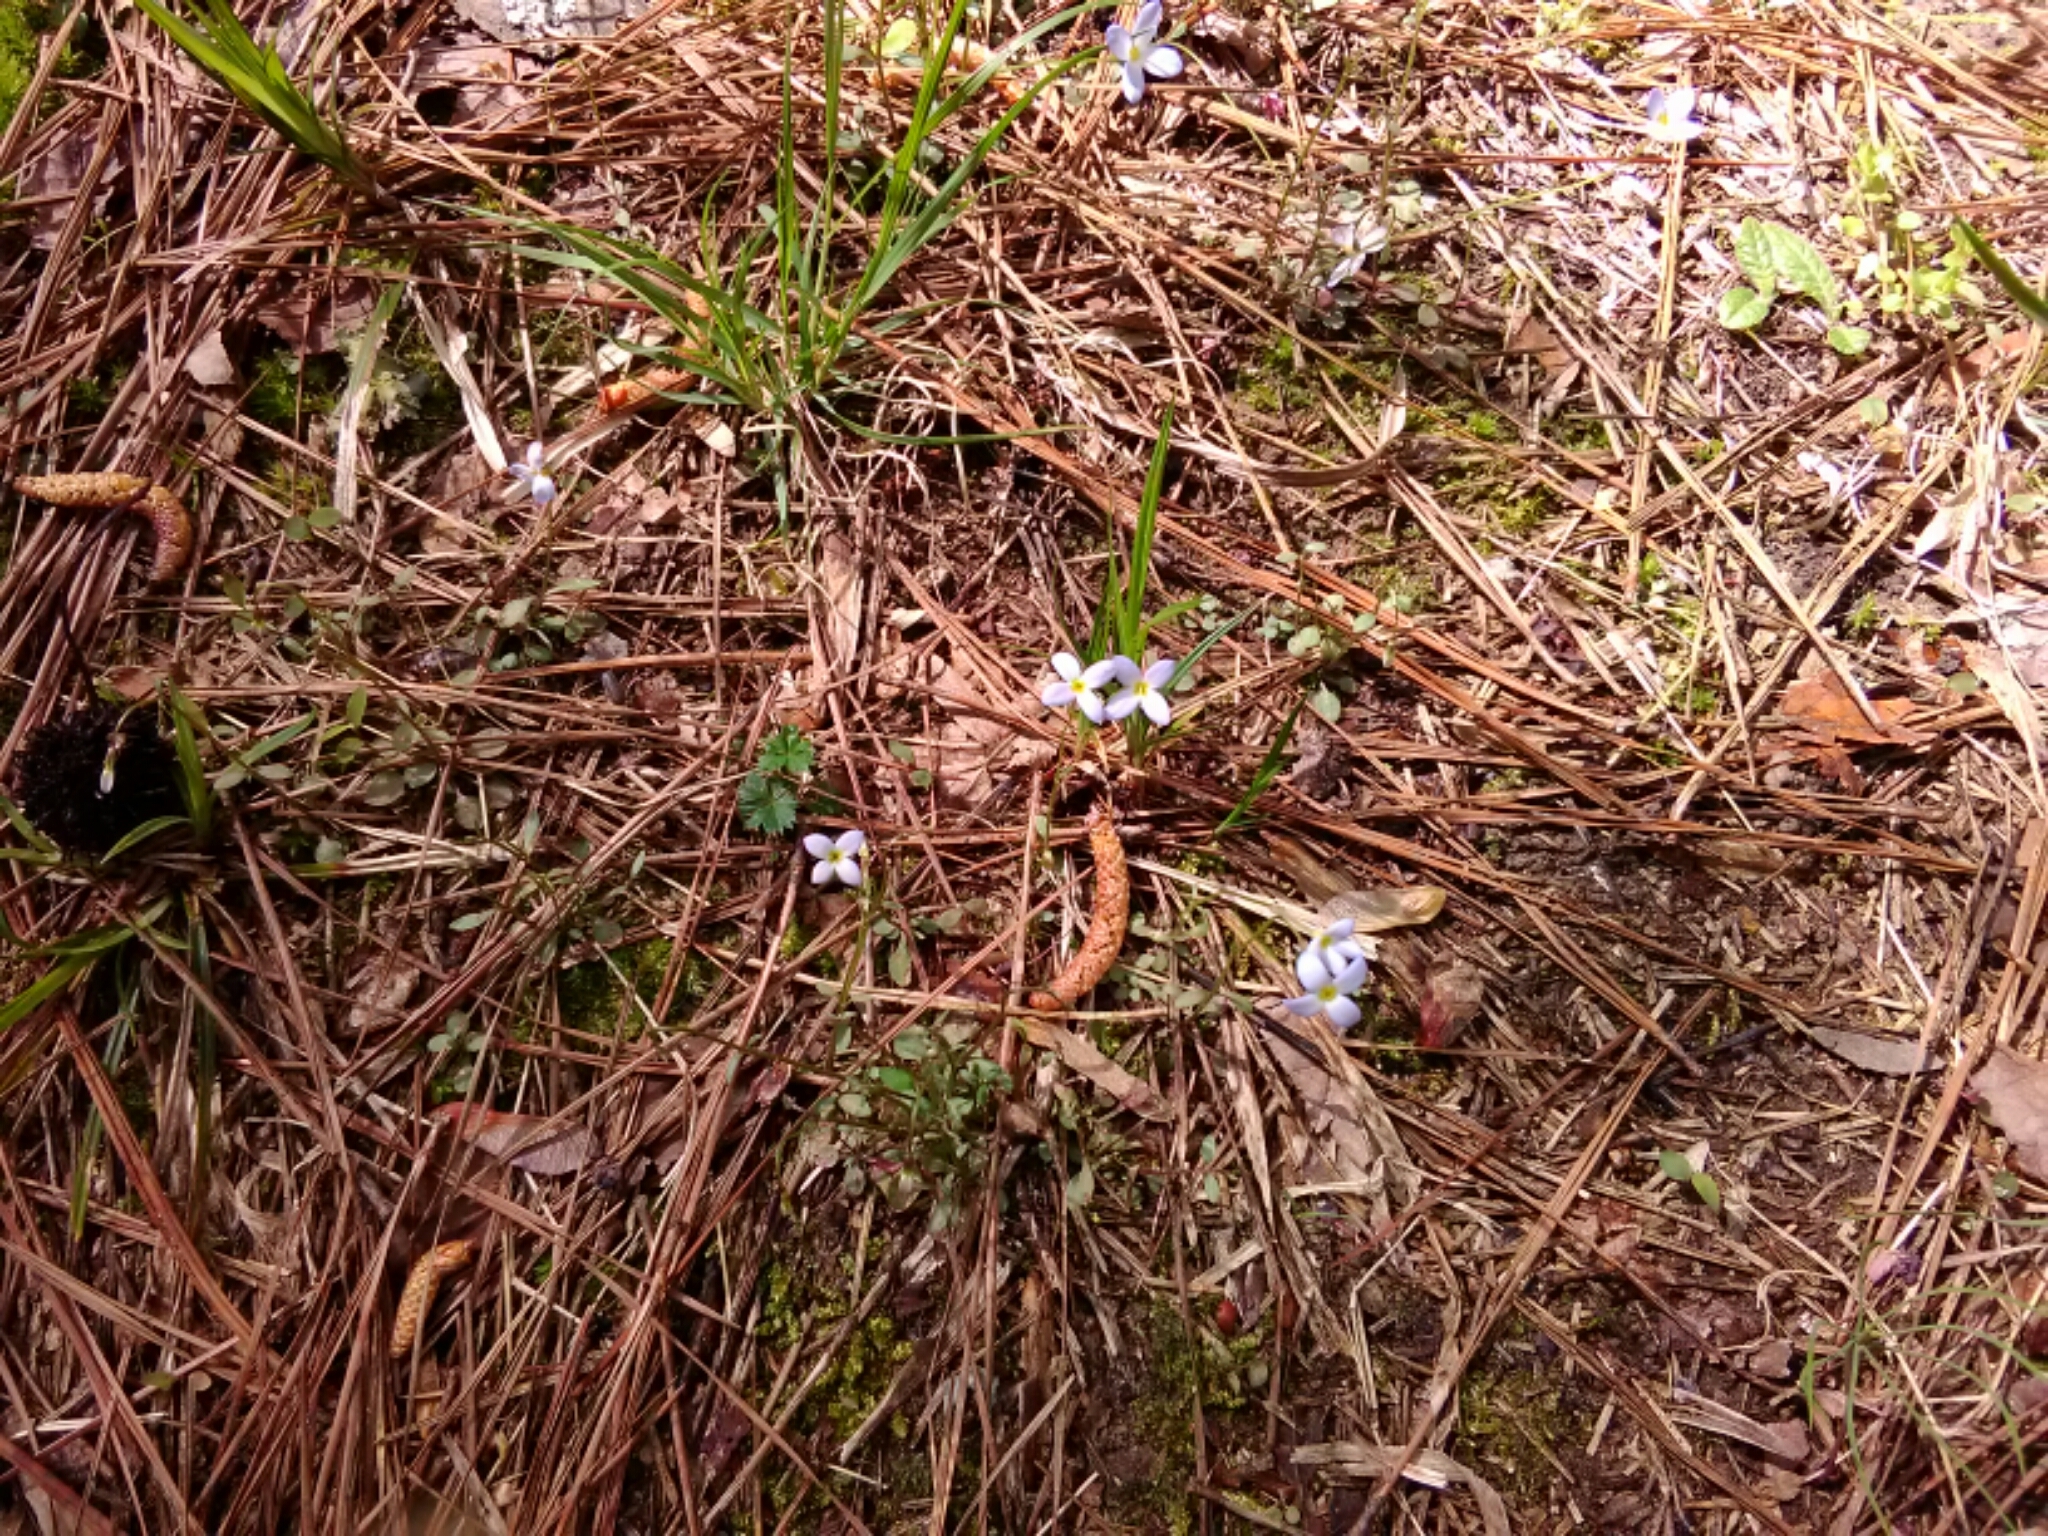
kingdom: Plantae
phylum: Tracheophyta
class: Magnoliopsida
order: Gentianales
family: Rubiaceae
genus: Houstonia
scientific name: Houstonia caerulea
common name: Bluets
